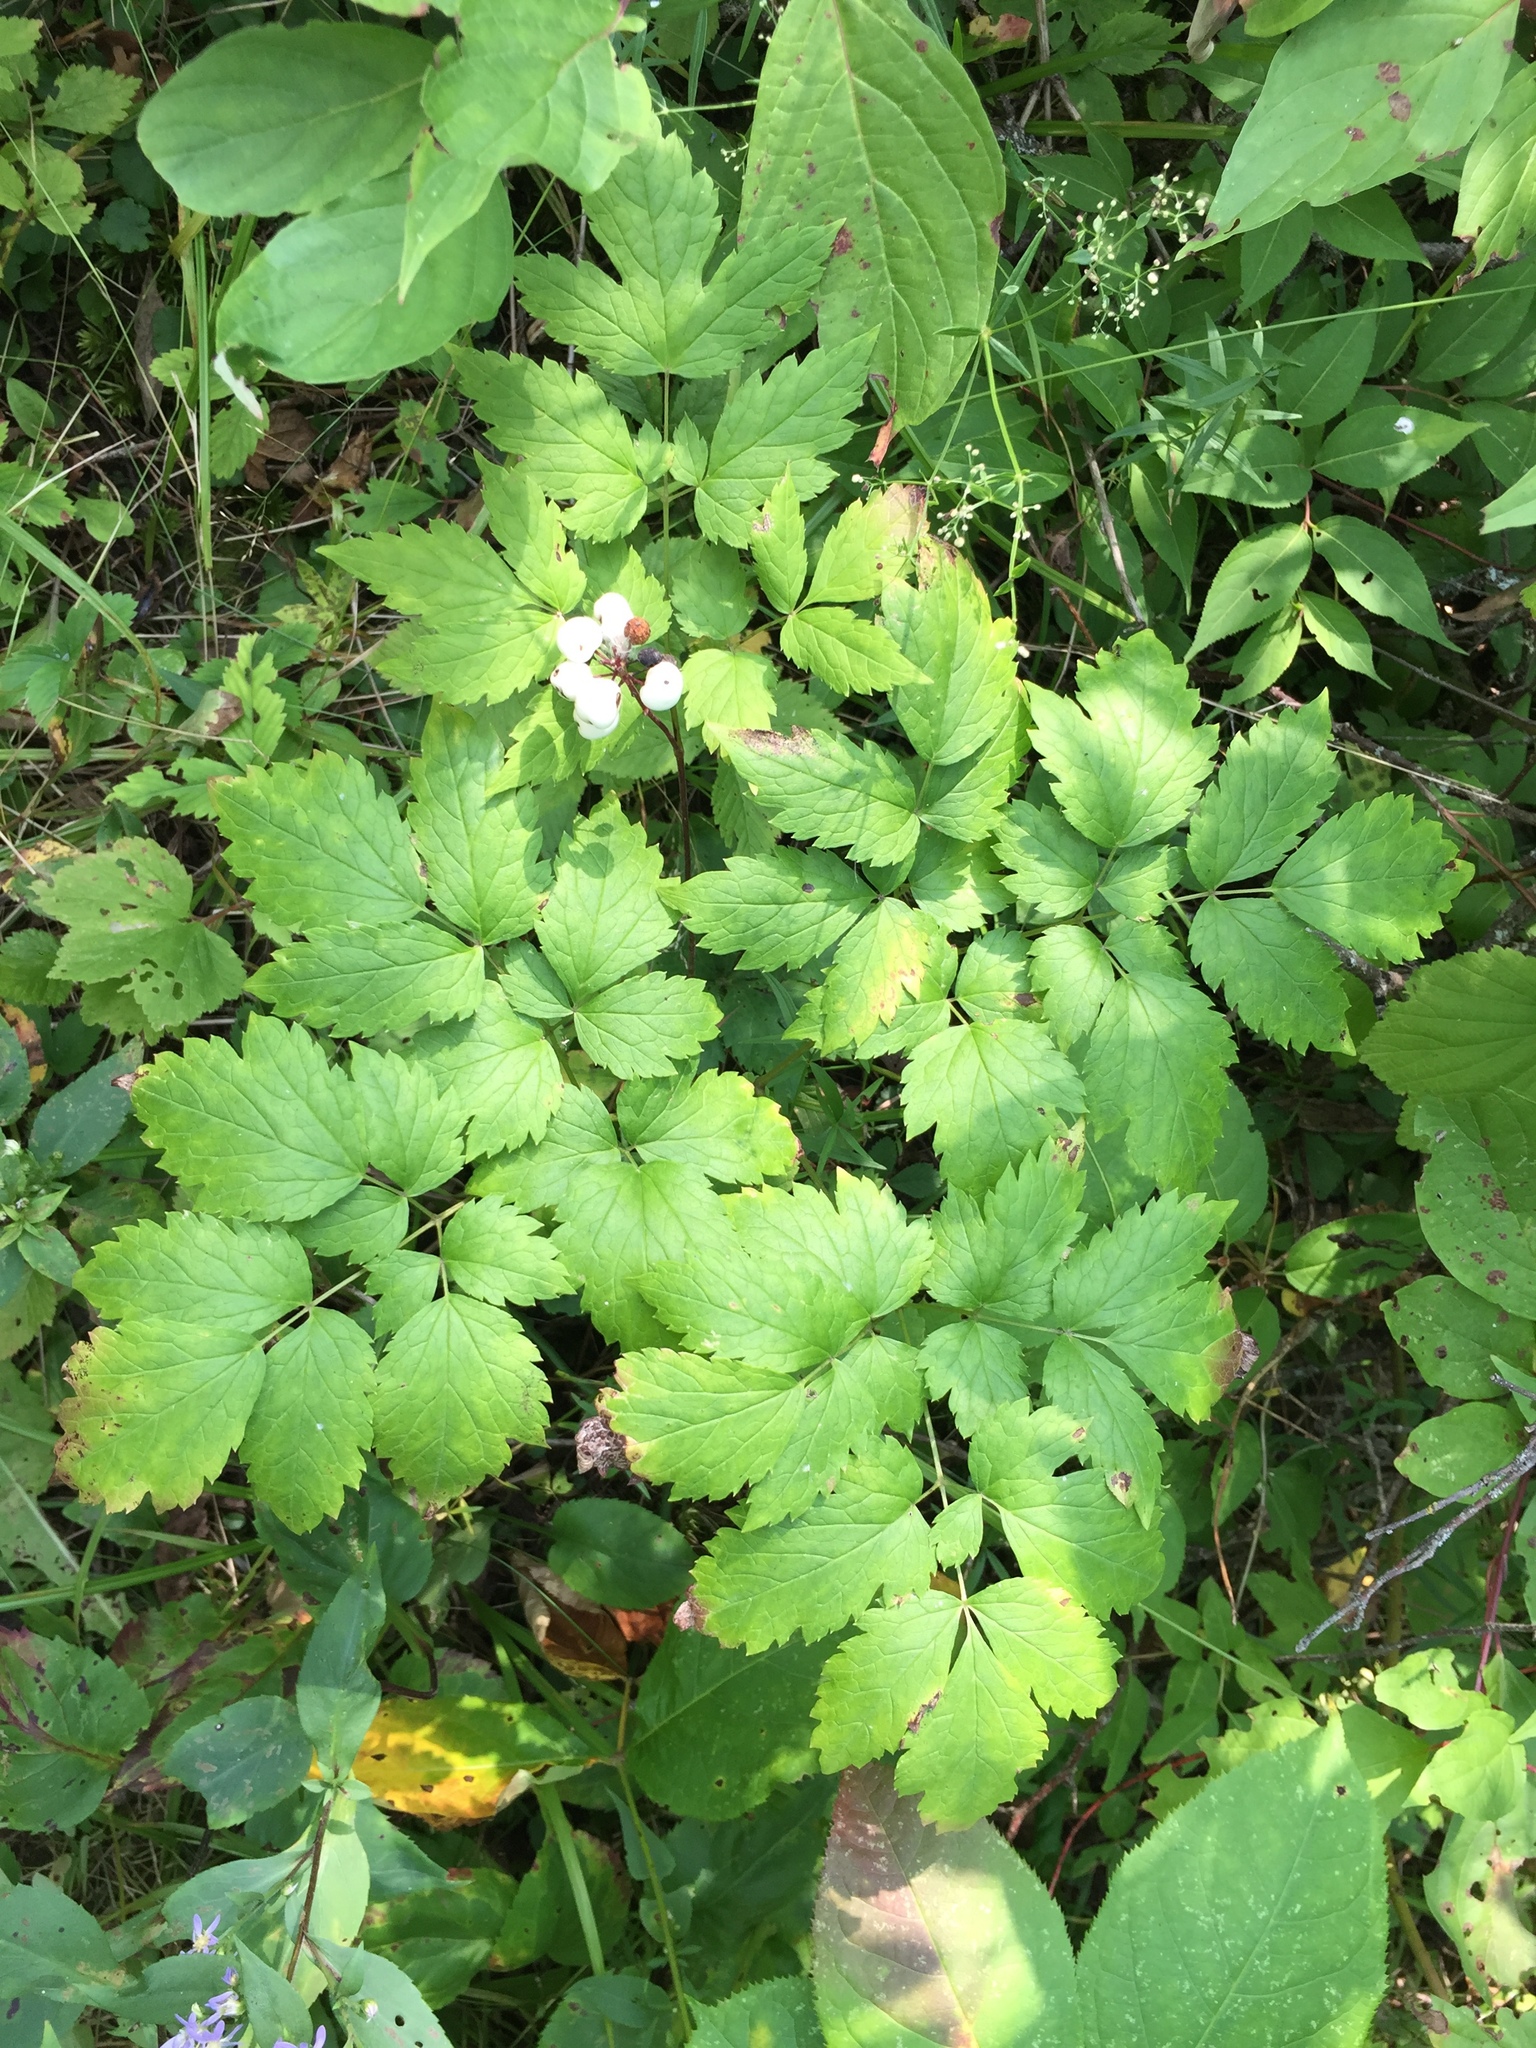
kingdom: Plantae
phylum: Tracheophyta
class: Magnoliopsida
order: Ranunculales
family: Ranunculaceae
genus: Actaea
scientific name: Actaea rubra
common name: Red baneberry
